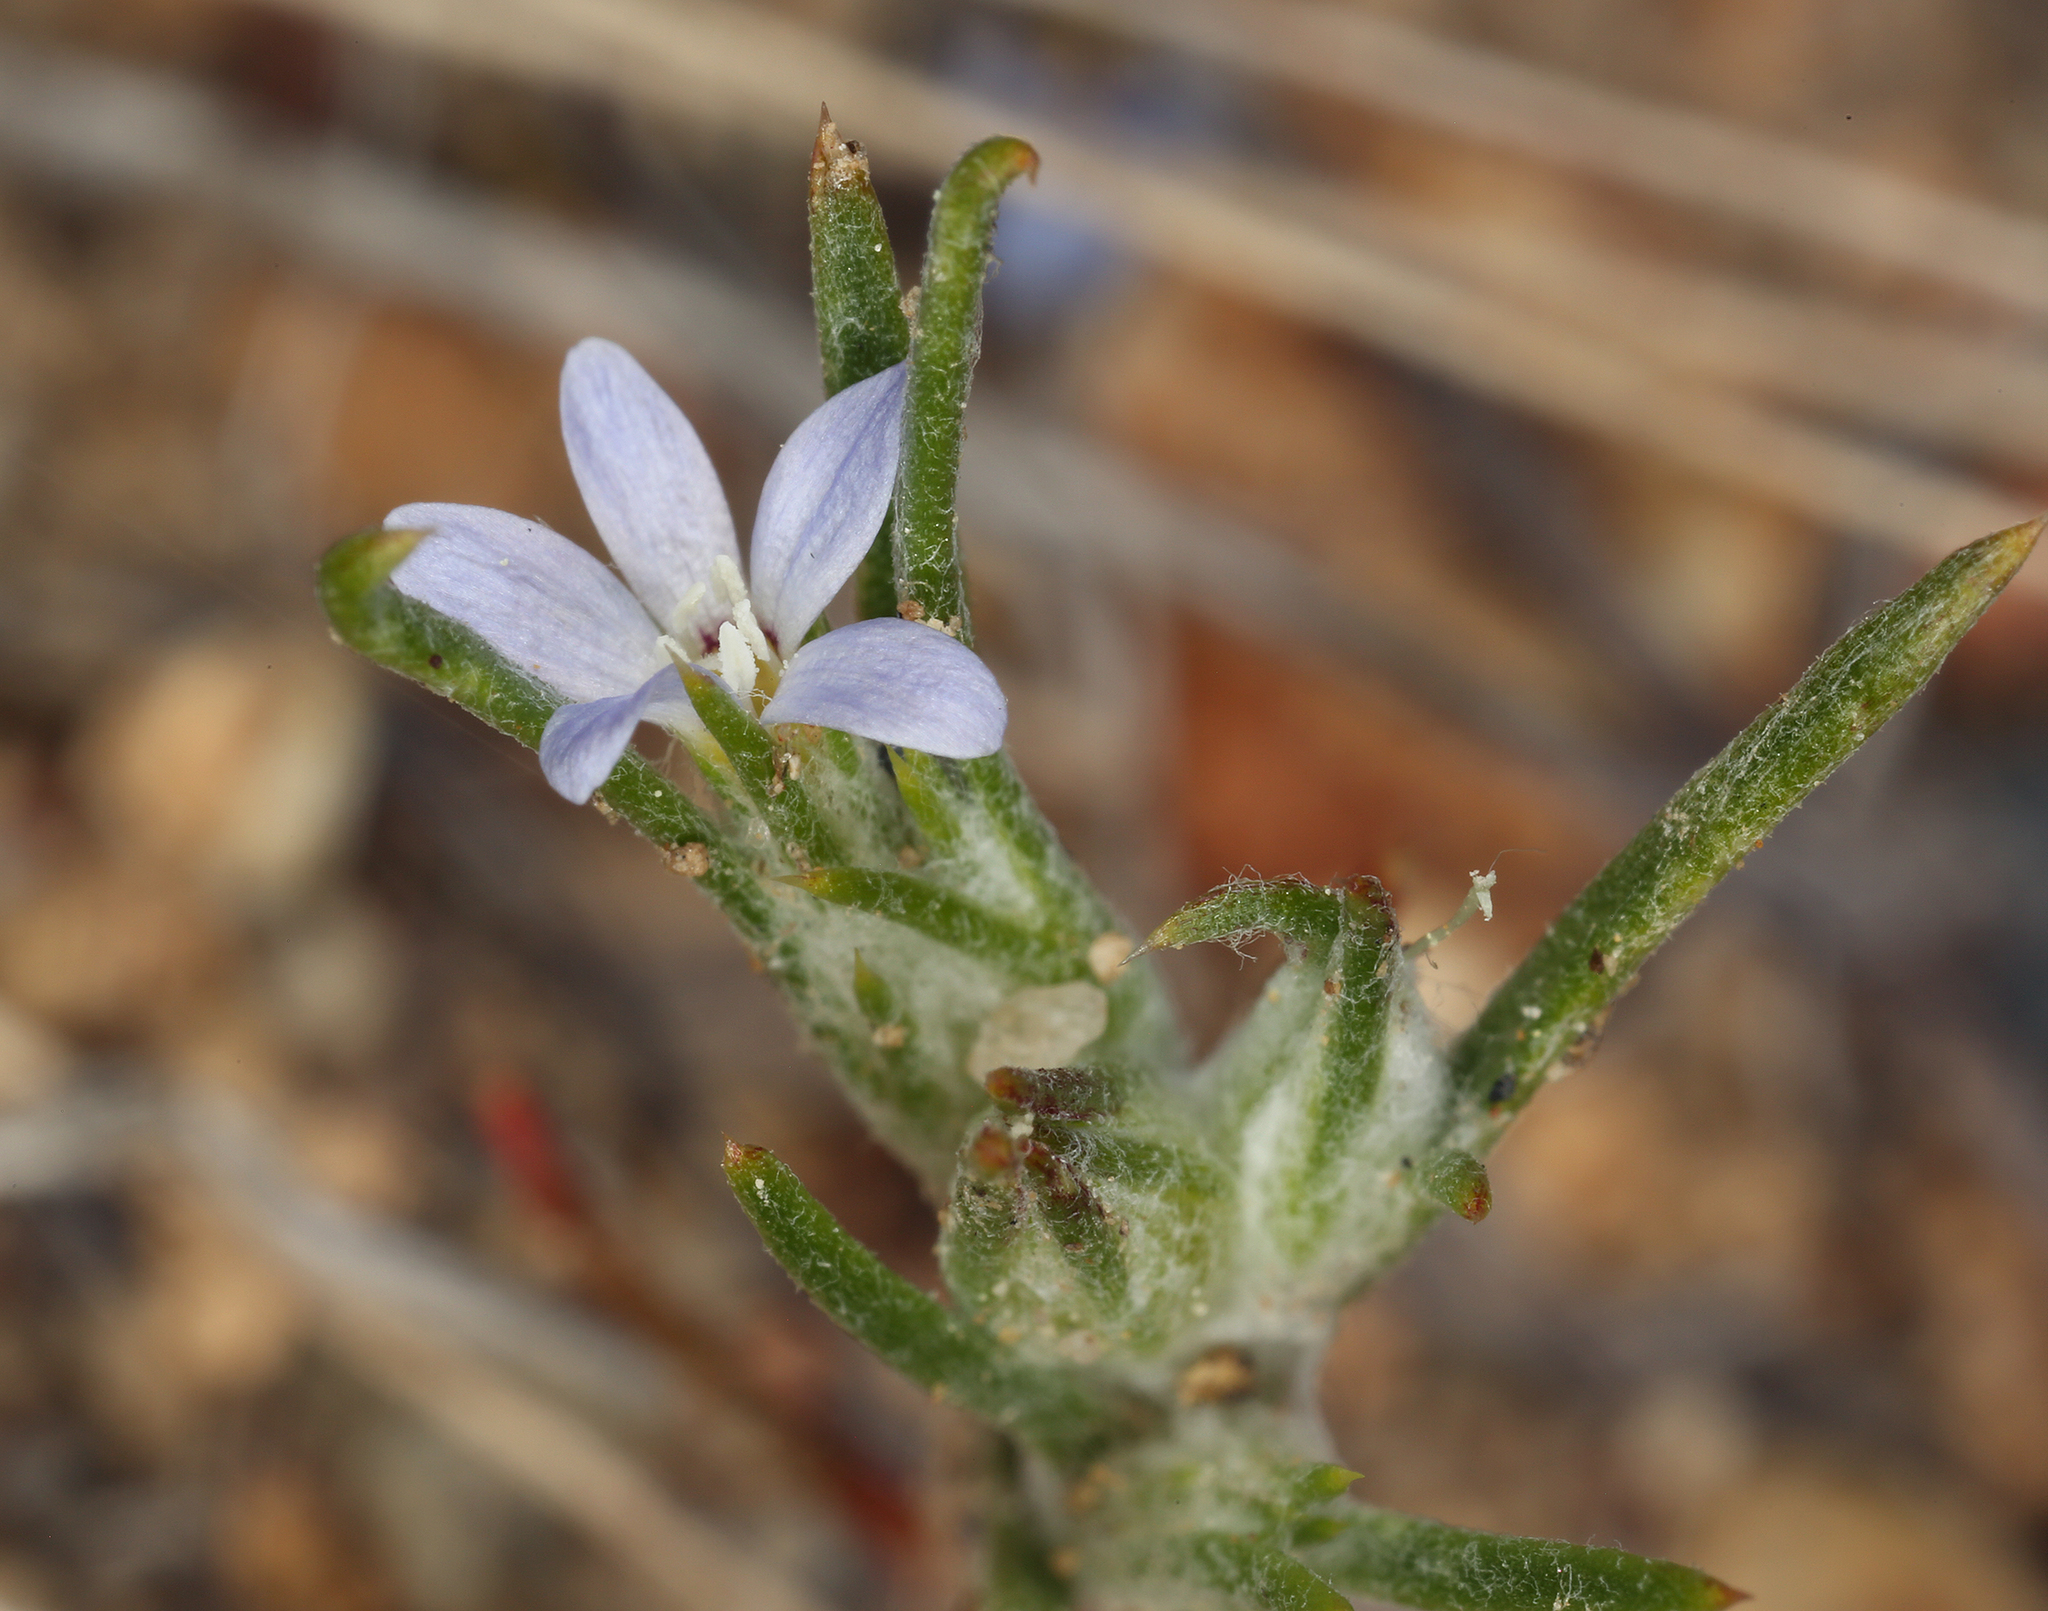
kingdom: Plantae
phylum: Tracheophyta
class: Magnoliopsida
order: Ericales
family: Polemoniaceae
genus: Eriastrum
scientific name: Eriastrum signatum
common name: Great basin woollystar
